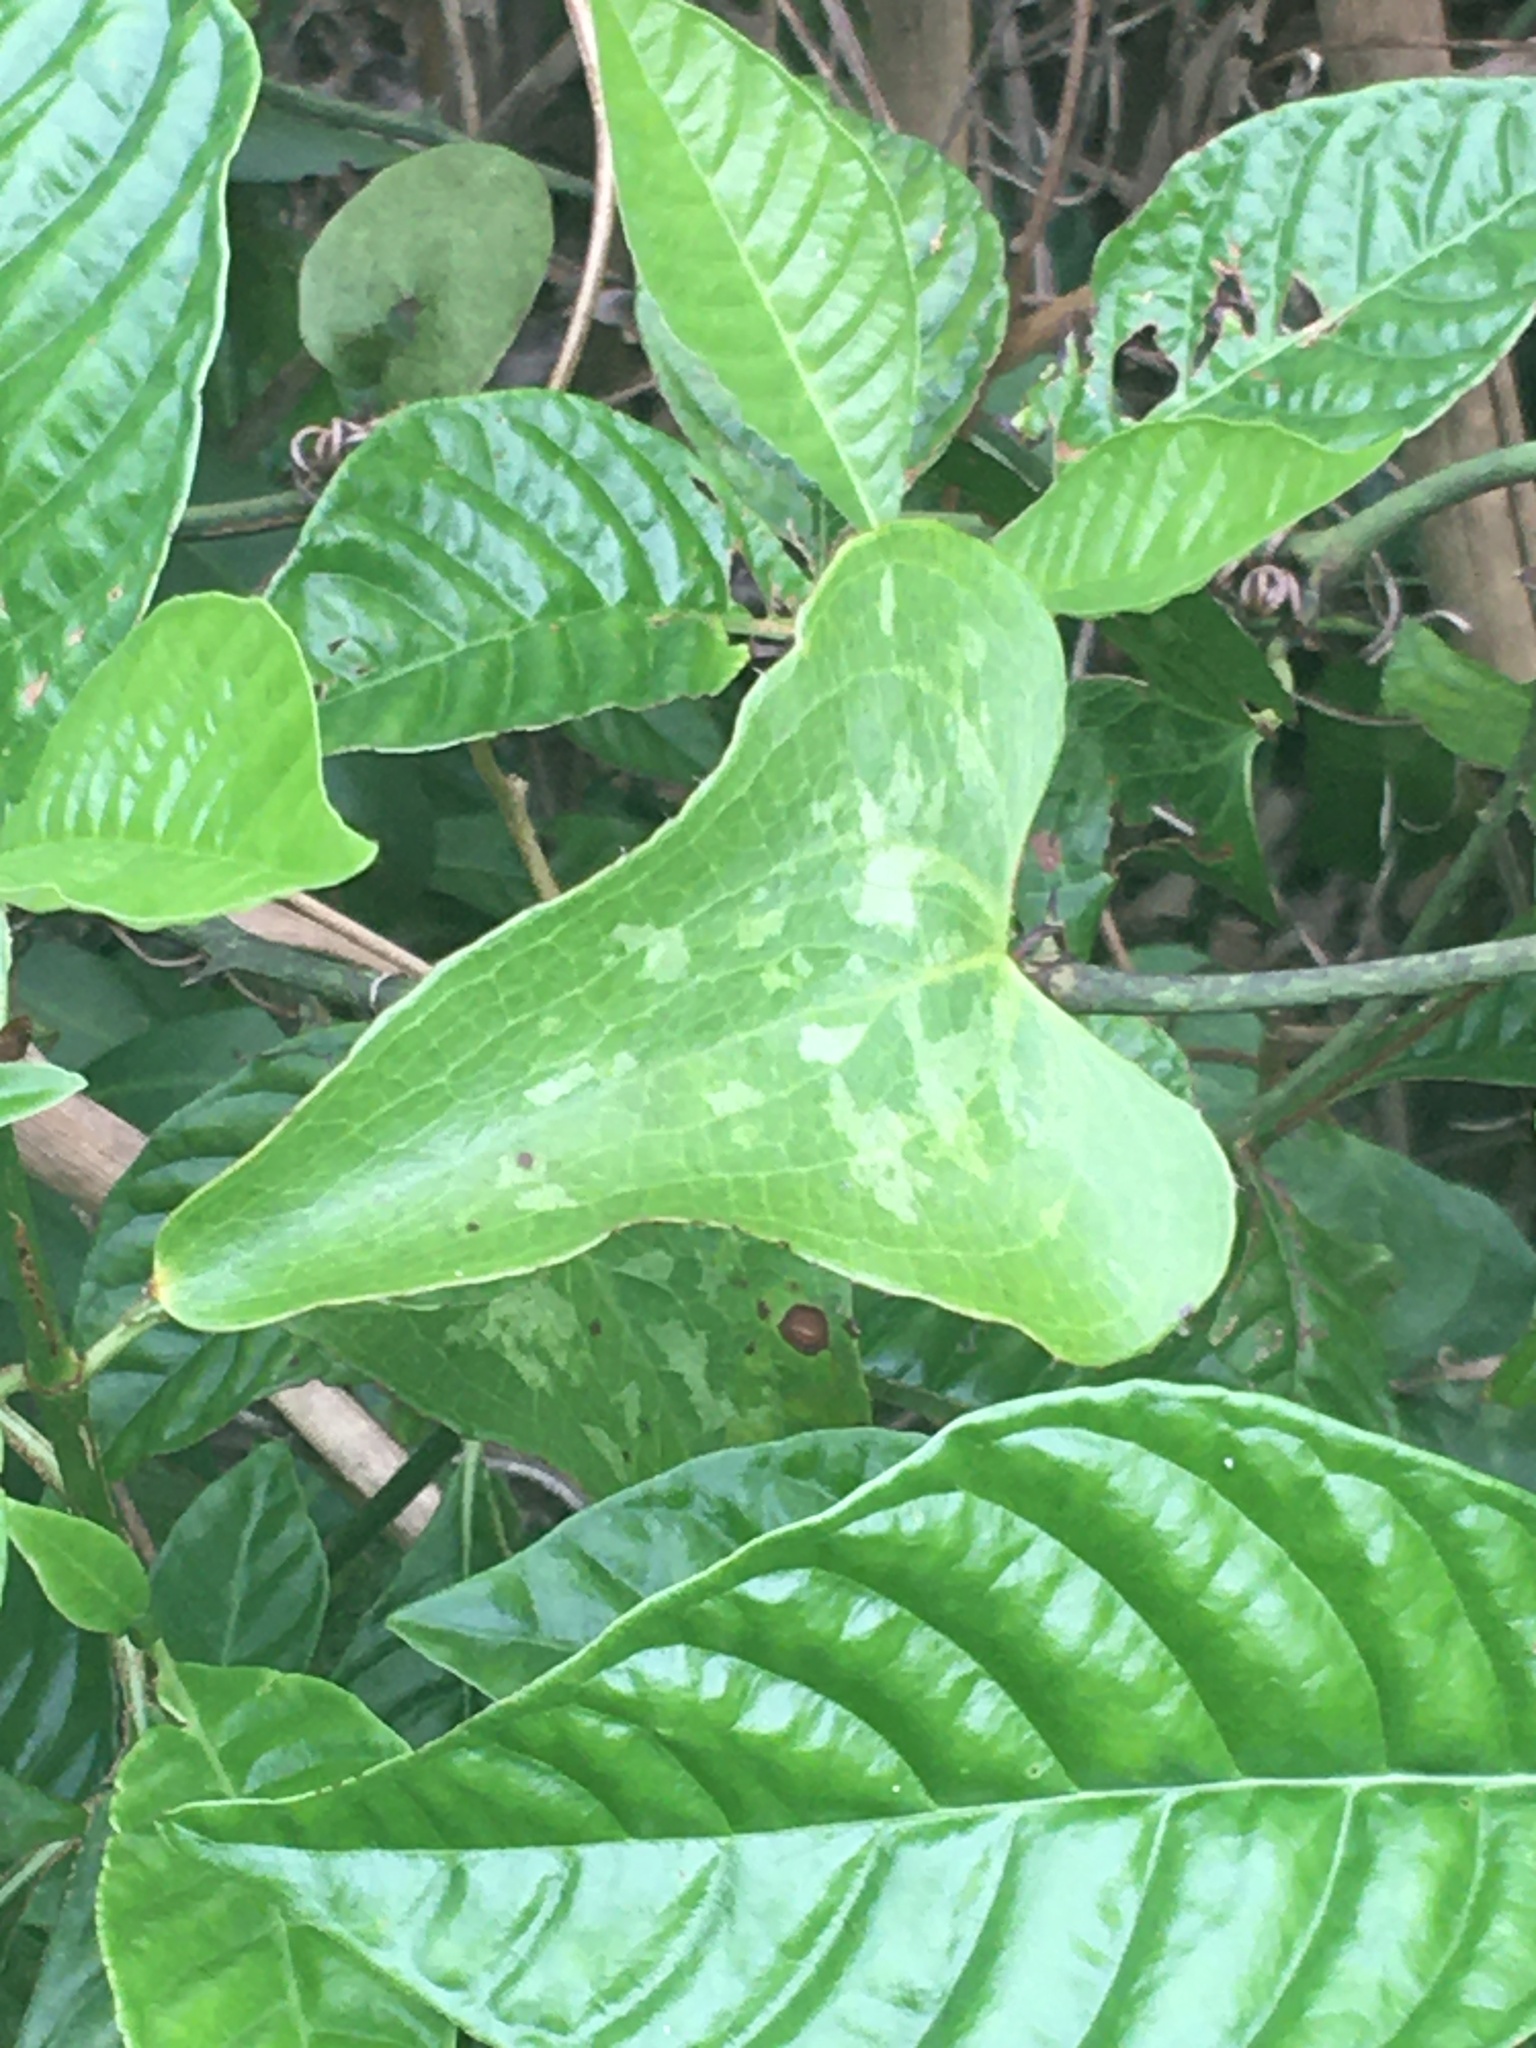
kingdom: Plantae
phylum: Tracheophyta
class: Liliopsida
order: Liliales
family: Smilacaceae
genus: Smilax
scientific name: Smilax bona-nox
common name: Catbrier
